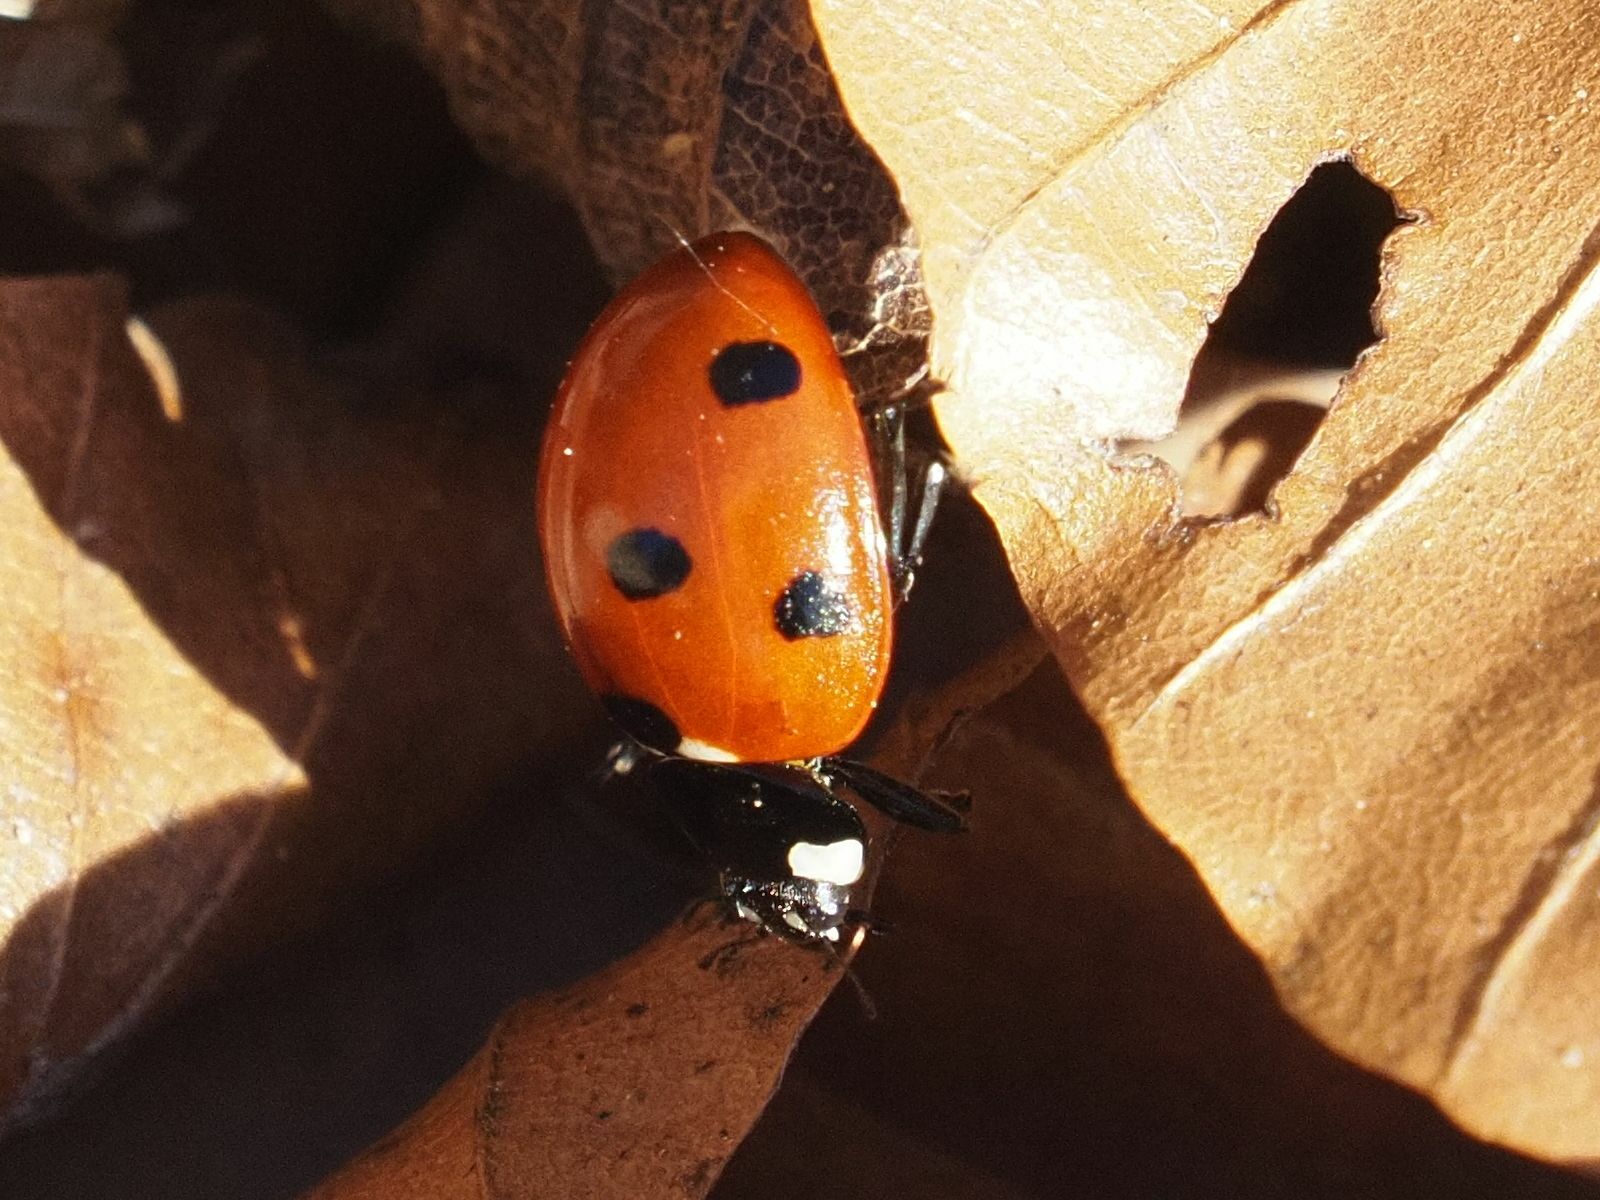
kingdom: Animalia
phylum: Arthropoda
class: Insecta
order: Coleoptera
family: Coccinellidae
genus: Coccinella
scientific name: Coccinella septempunctata
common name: Sevenspotted lady beetle
